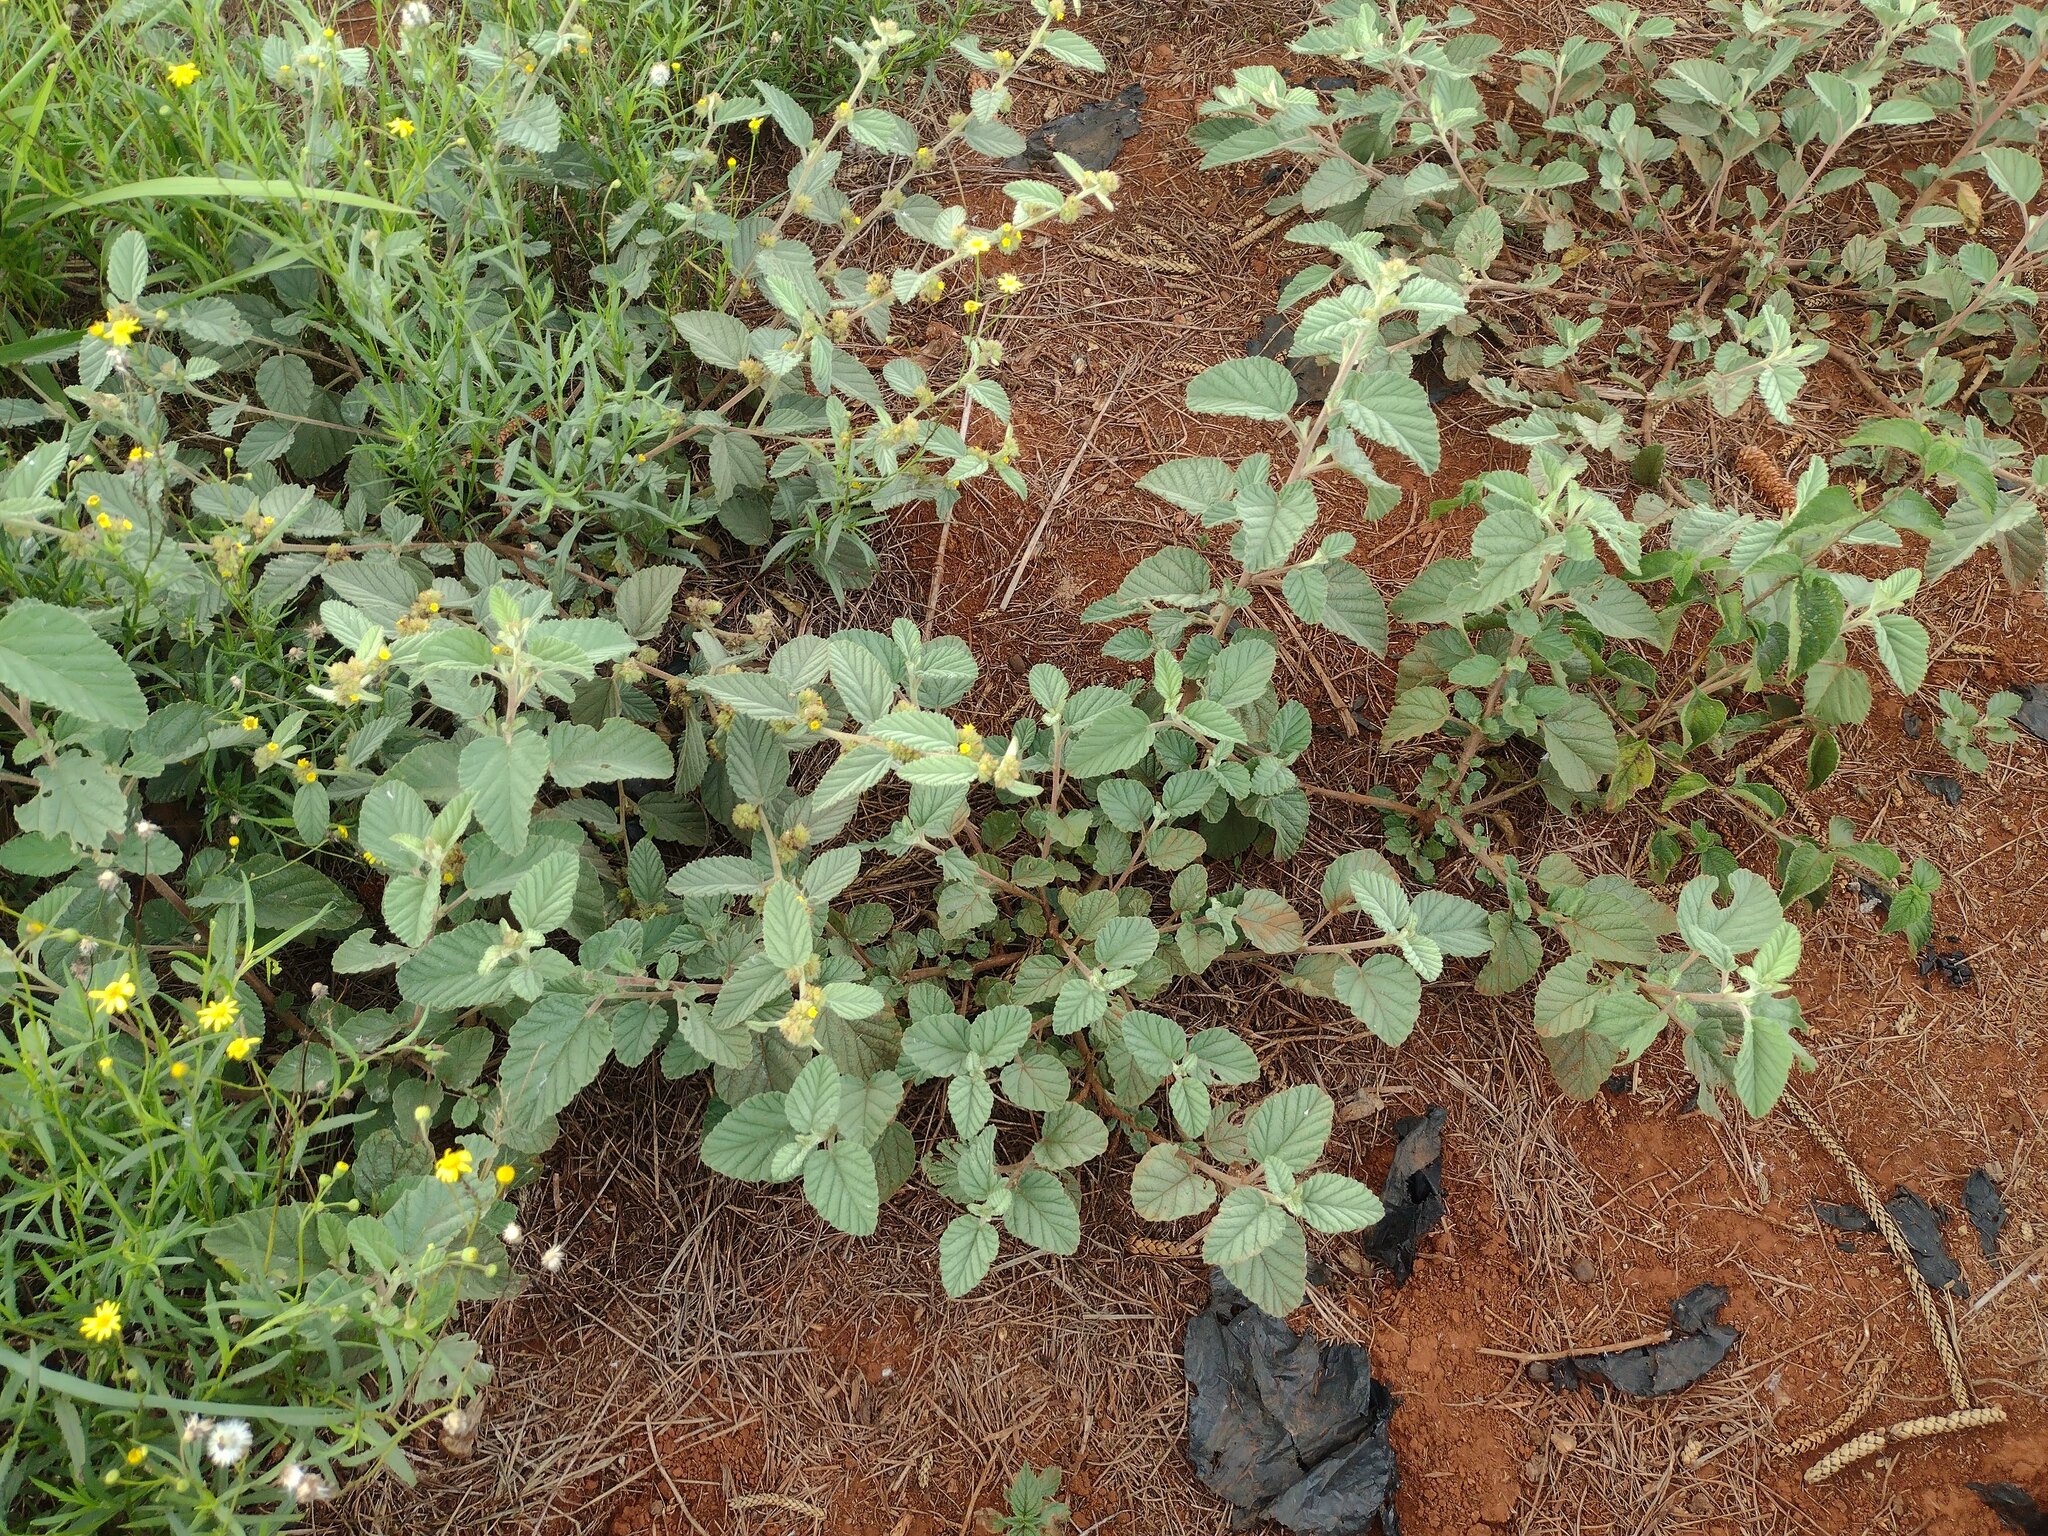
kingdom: Plantae
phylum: Tracheophyta
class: Magnoliopsida
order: Malvales
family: Malvaceae
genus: Waltheria
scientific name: Waltheria indica
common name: Leather-coat
